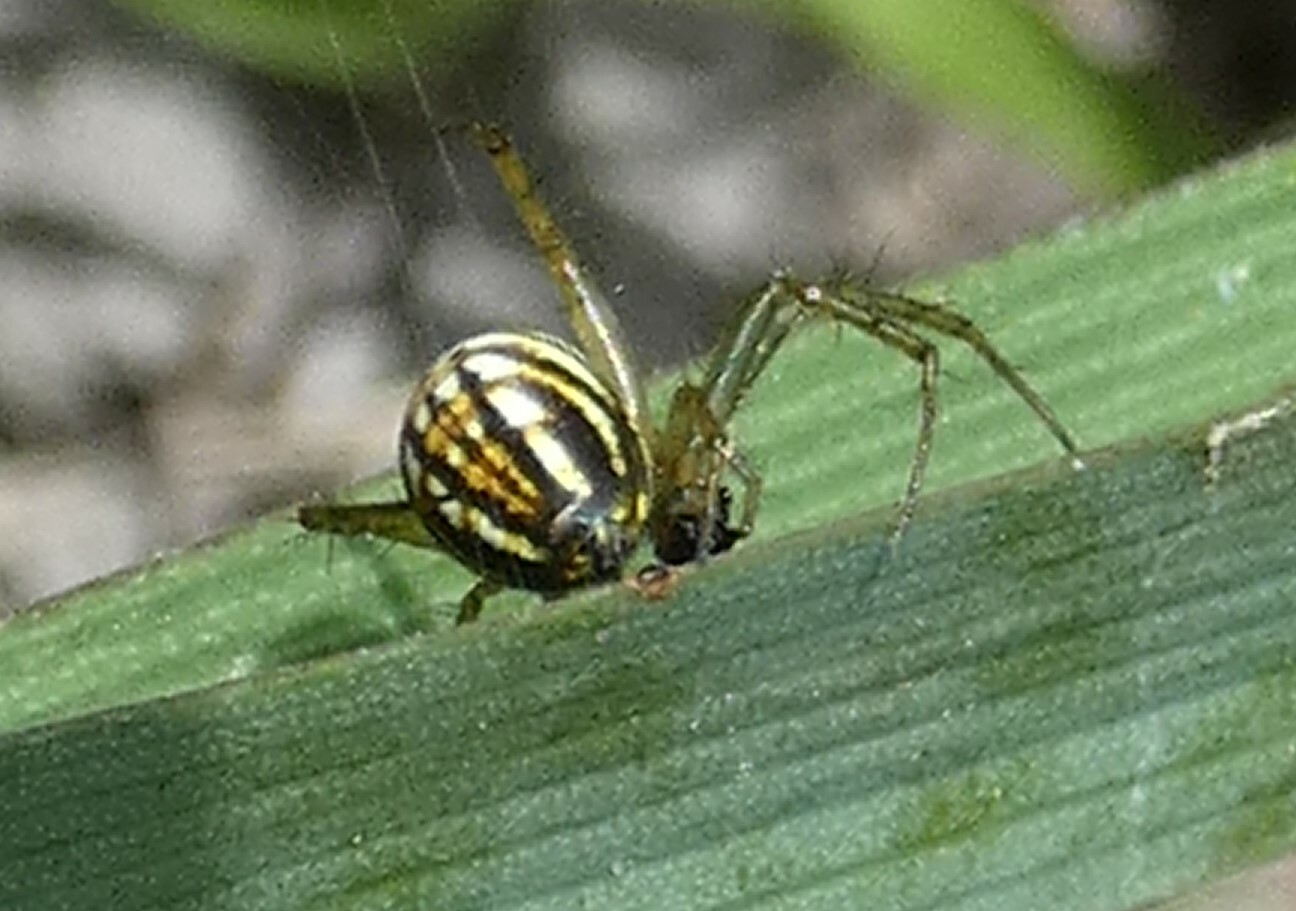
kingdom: Animalia
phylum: Arthropoda
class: Arachnida
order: Araneae
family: Araneidae
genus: Mangora
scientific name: Mangora gibberosa
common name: Lined orbweaver
